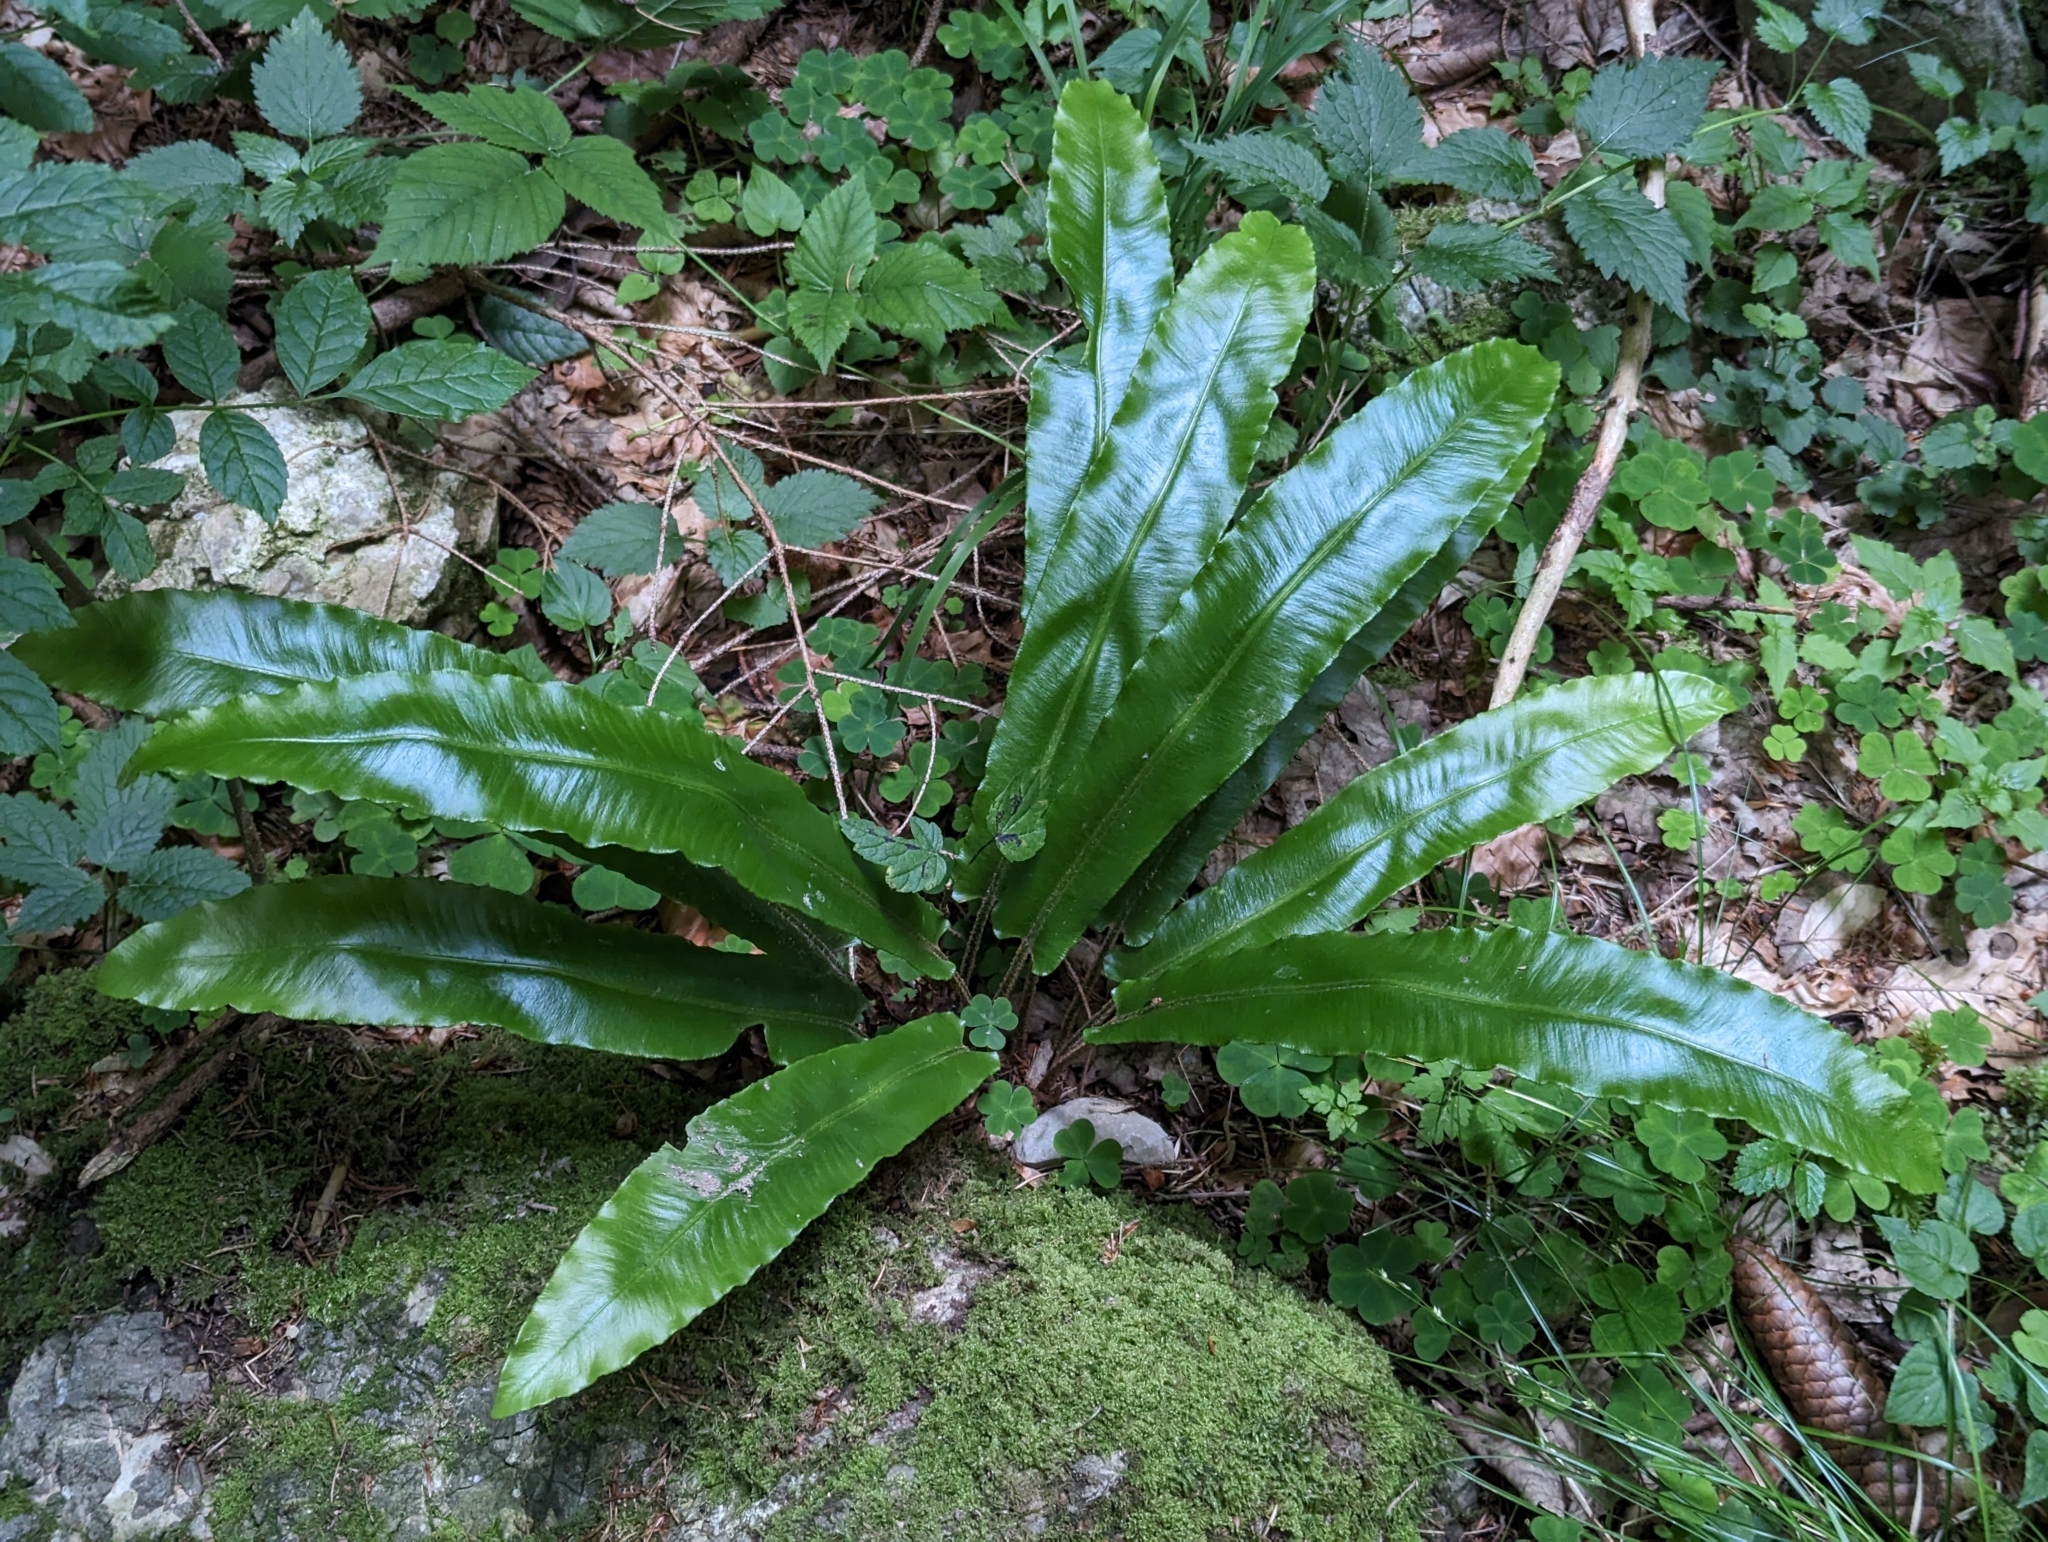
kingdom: Plantae
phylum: Tracheophyta
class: Polypodiopsida
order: Polypodiales
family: Aspleniaceae
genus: Asplenium
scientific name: Asplenium scolopendrium
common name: Hart's-tongue fern
